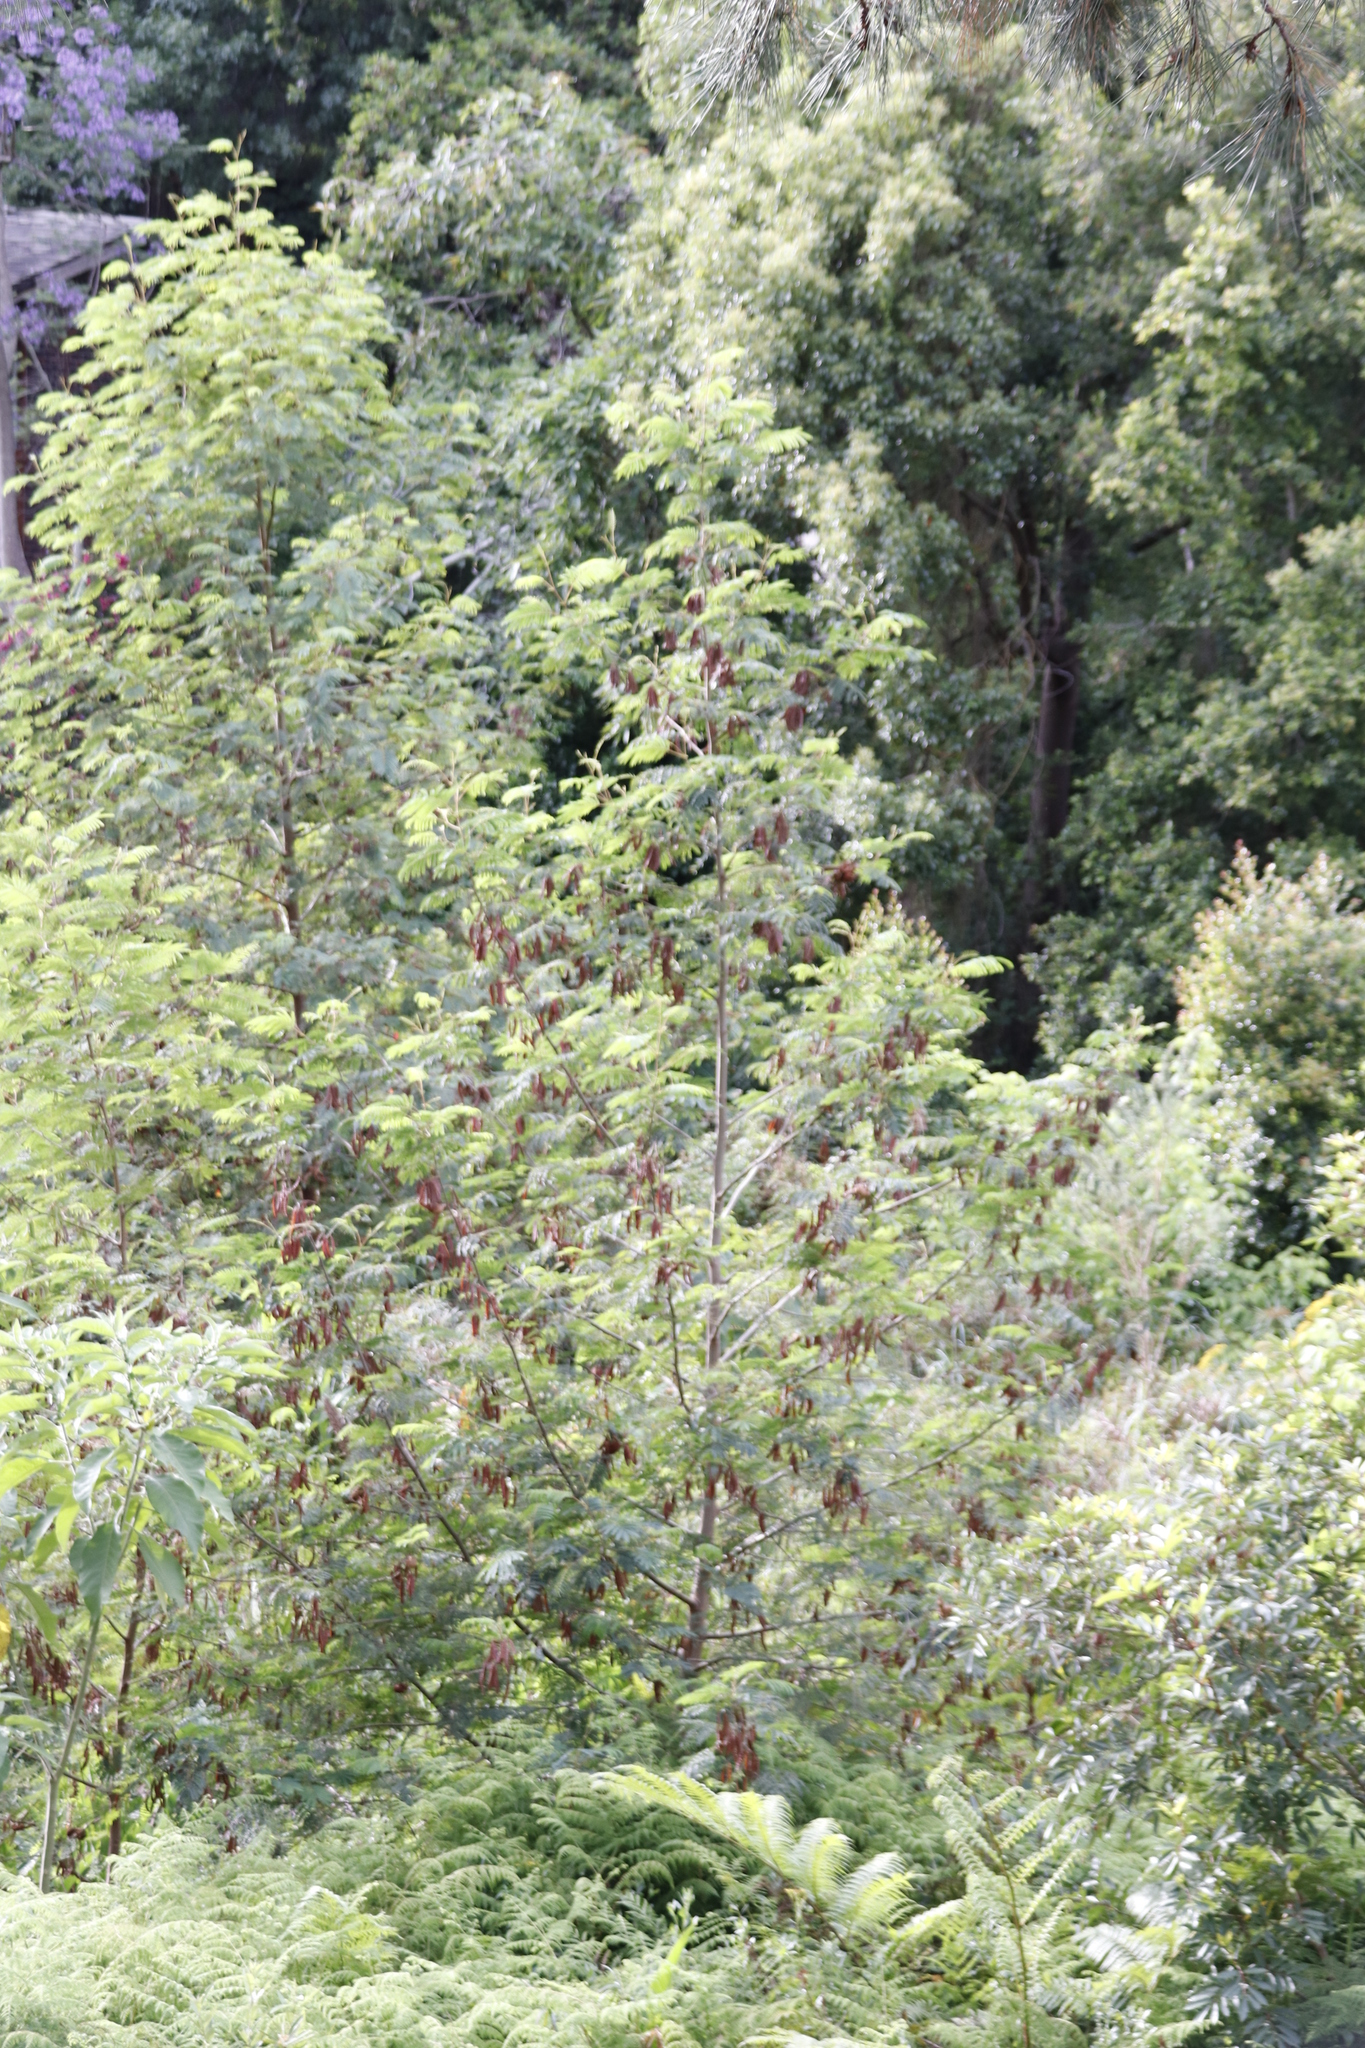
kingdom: Plantae
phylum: Tracheophyta
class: Magnoliopsida
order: Fabales
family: Fabaceae
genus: Paraserianthes
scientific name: Paraserianthes lophantha
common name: Plume albizia
